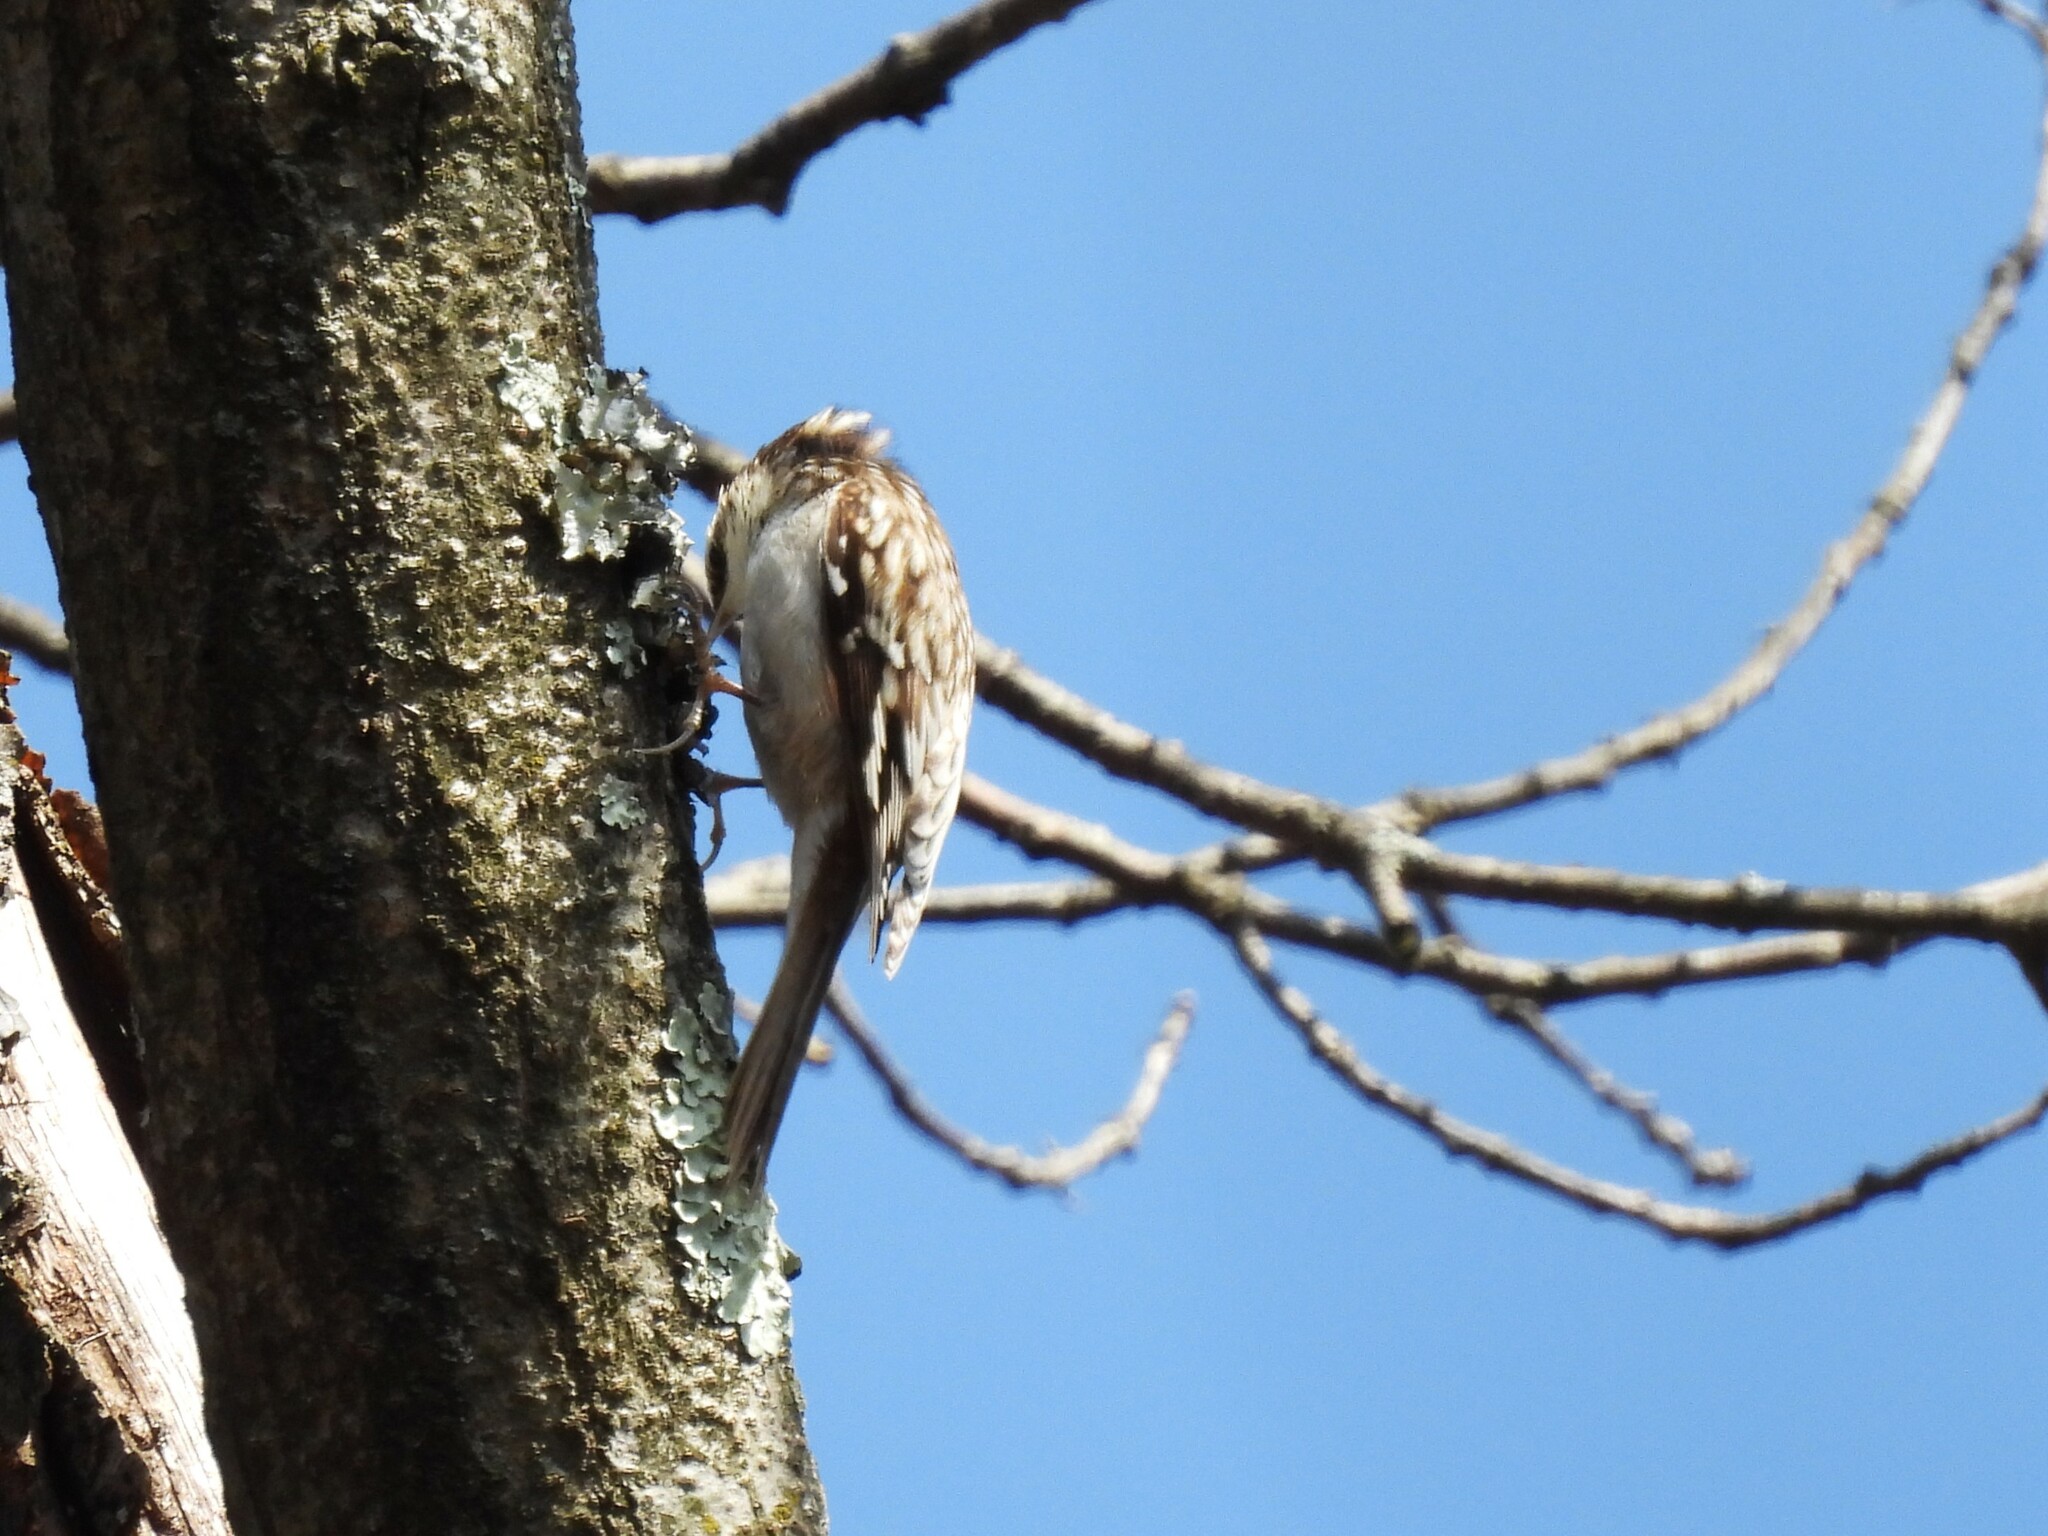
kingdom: Animalia
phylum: Chordata
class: Aves
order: Passeriformes
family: Certhiidae
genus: Certhia
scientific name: Certhia americana
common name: Brown creeper
